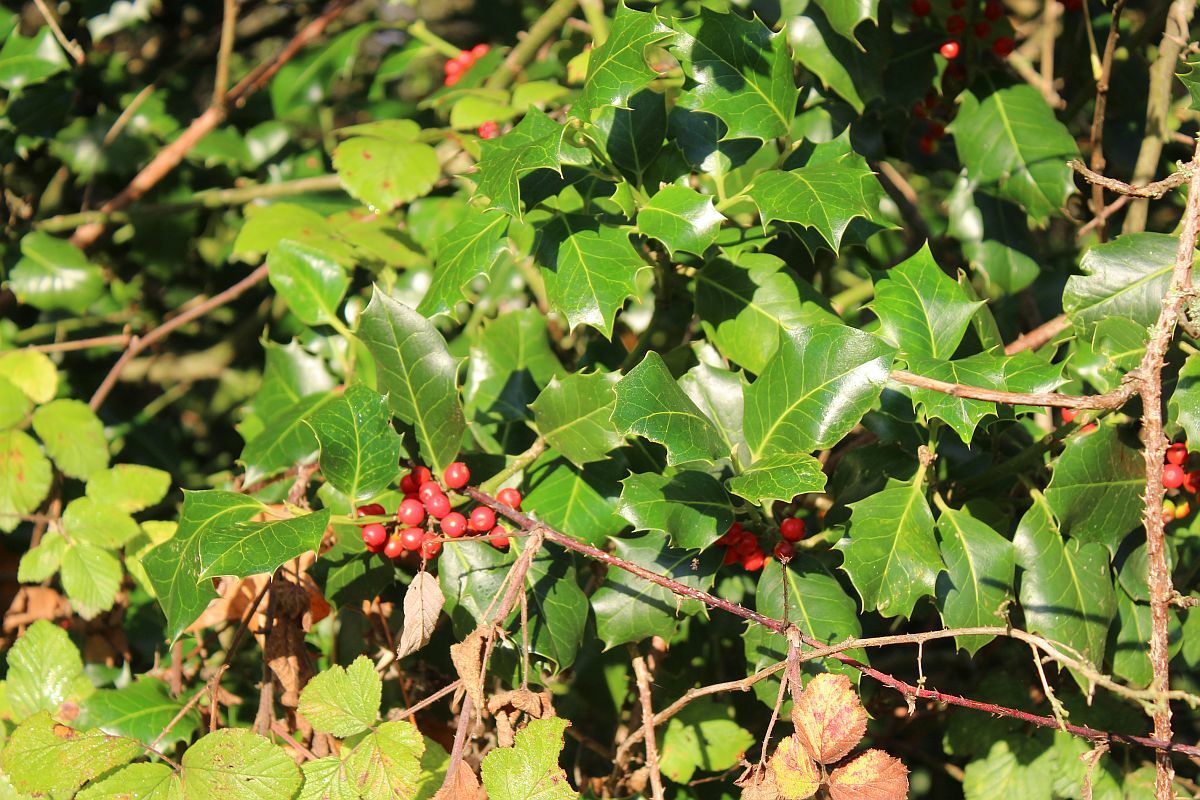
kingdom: Plantae
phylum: Tracheophyta
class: Magnoliopsida
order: Aquifoliales
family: Aquifoliaceae
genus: Ilex
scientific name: Ilex aquifolium
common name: English holly
